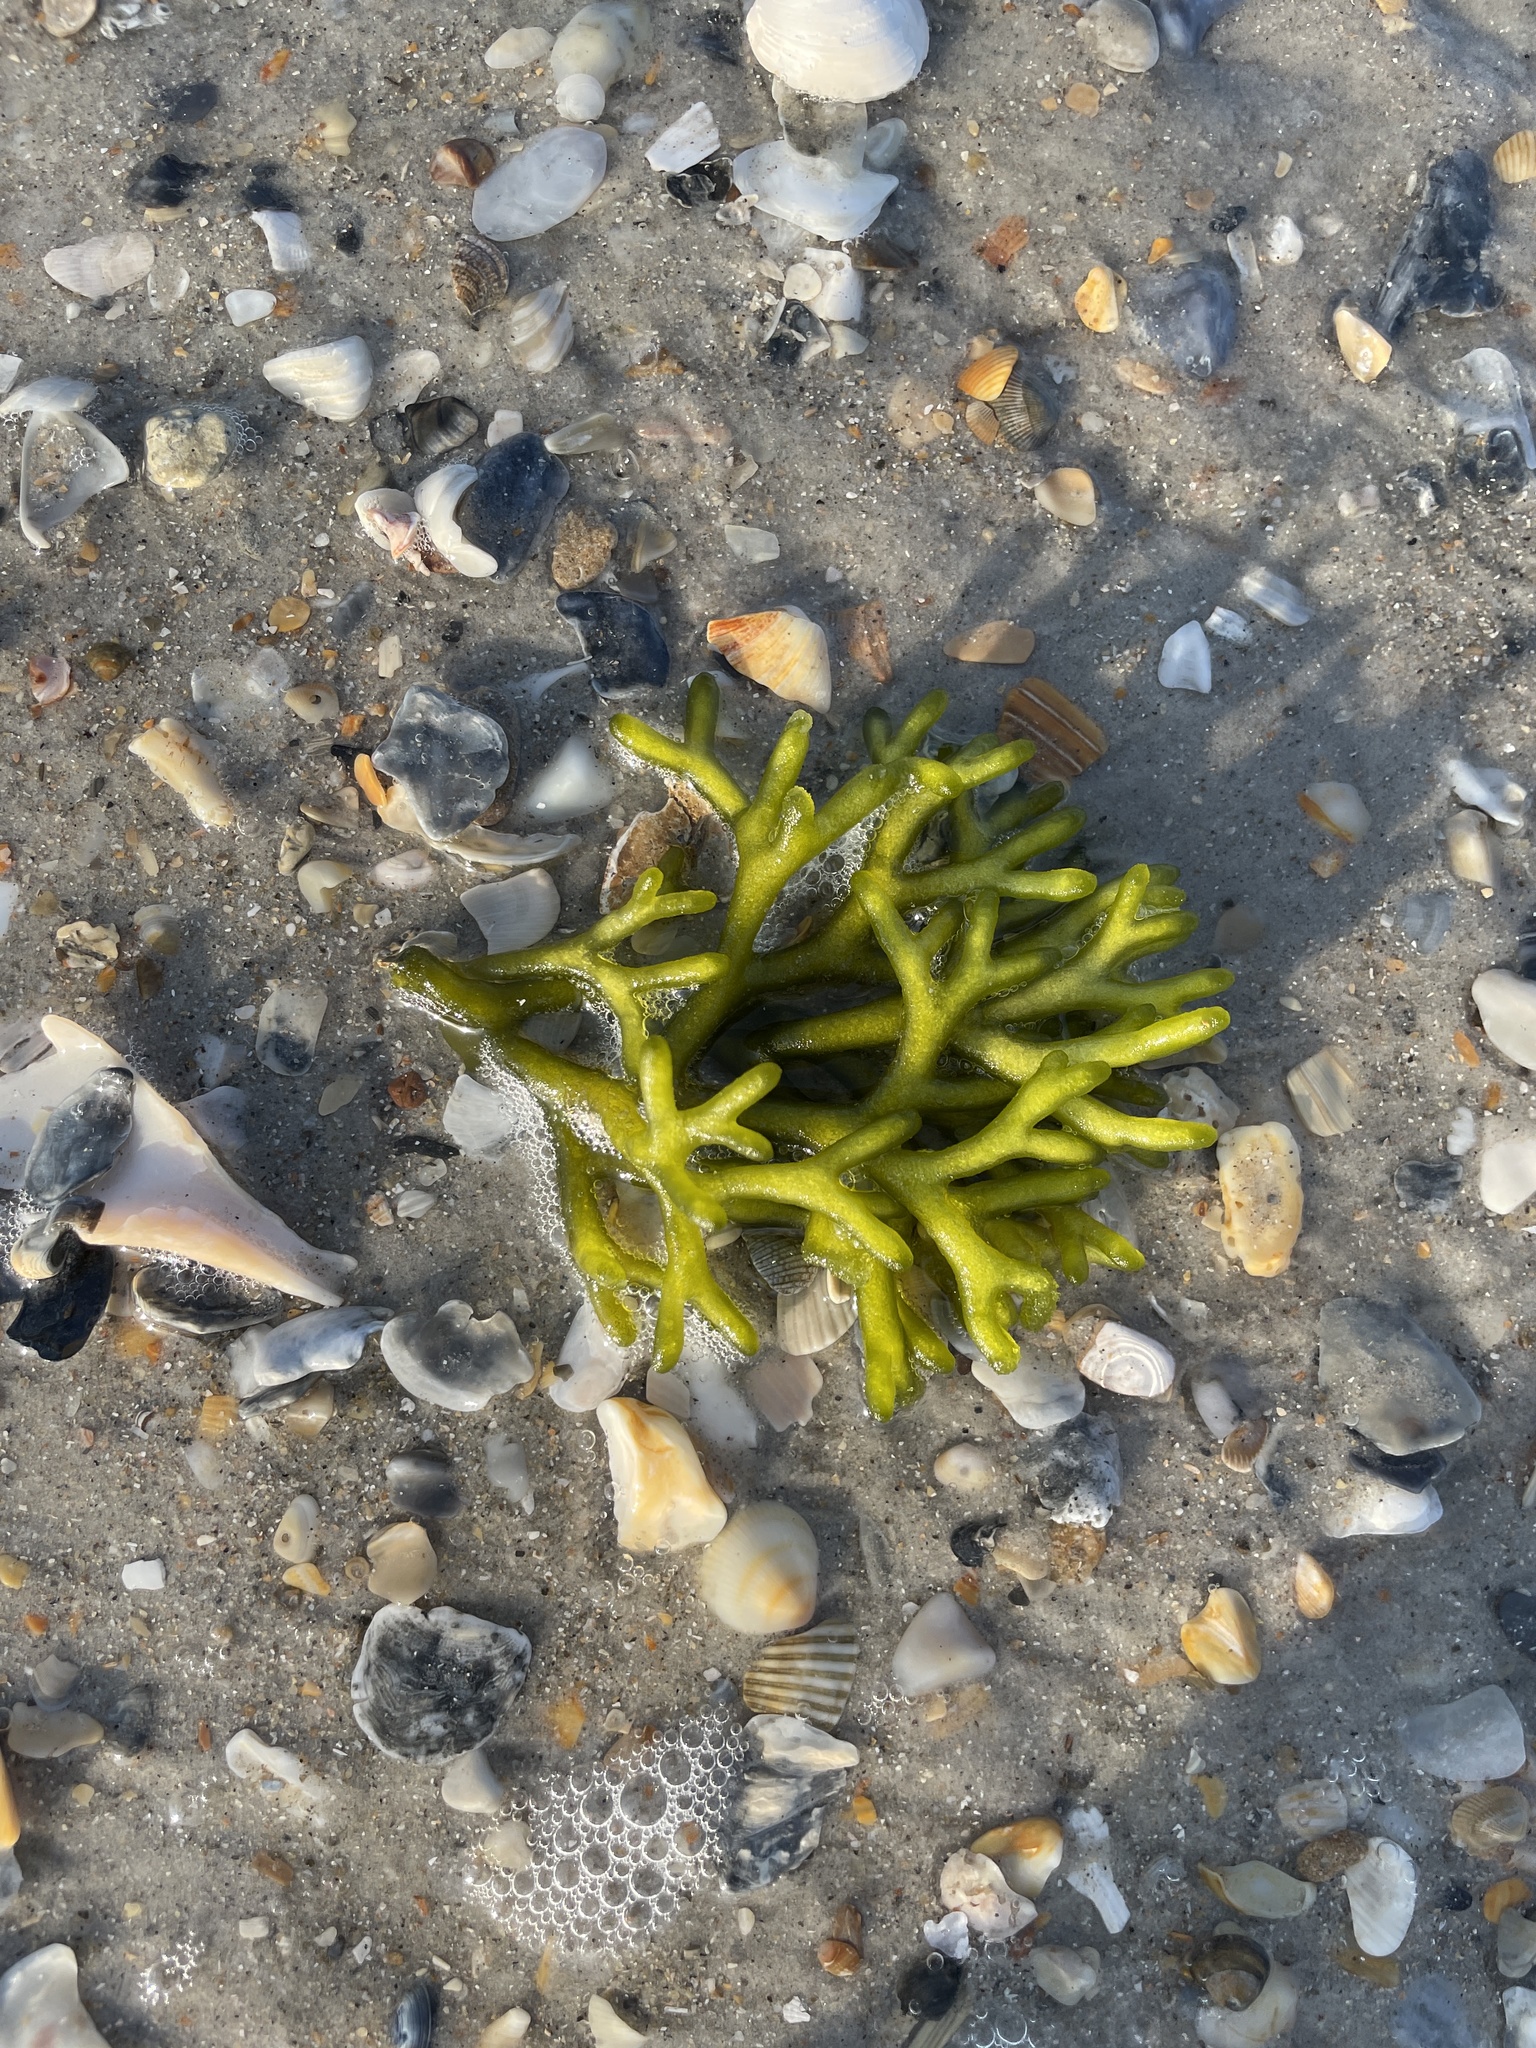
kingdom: Plantae
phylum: Chlorophyta
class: Ulvophyceae
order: Bryopsidales
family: Codiaceae
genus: Codium
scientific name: Codium fragile
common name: Dead man's fingers
